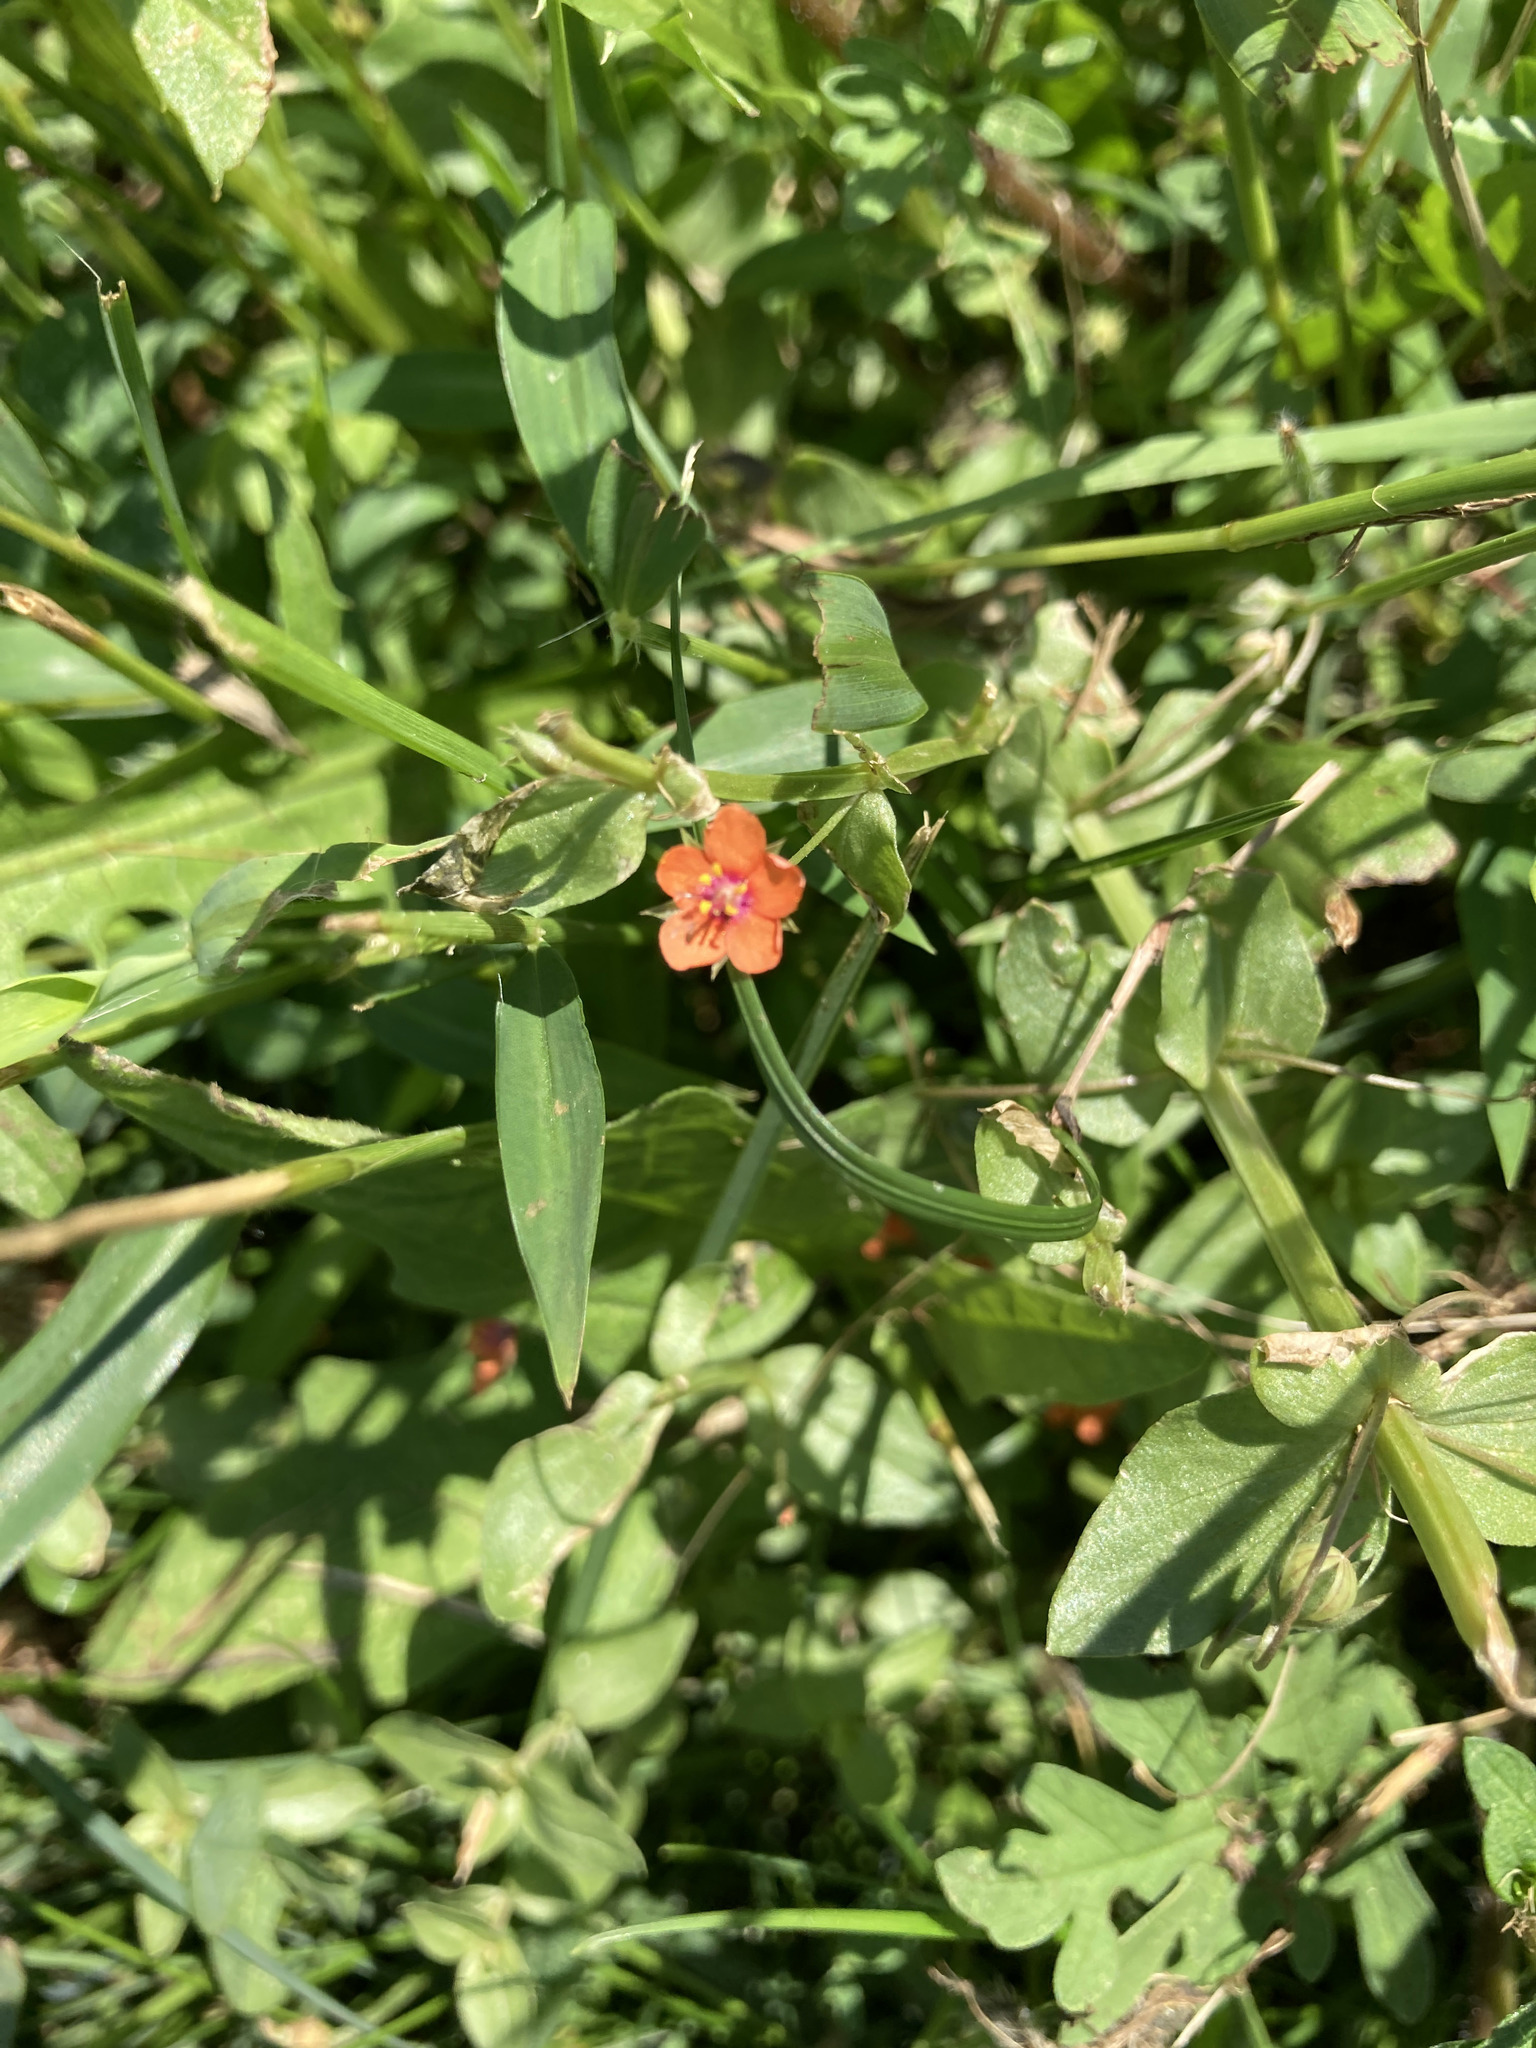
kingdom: Plantae
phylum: Tracheophyta
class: Magnoliopsida
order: Ericales
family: Primulaceae
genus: Lysimachia
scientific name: Lysimachia arvensis
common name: Scarlet pimpernel
